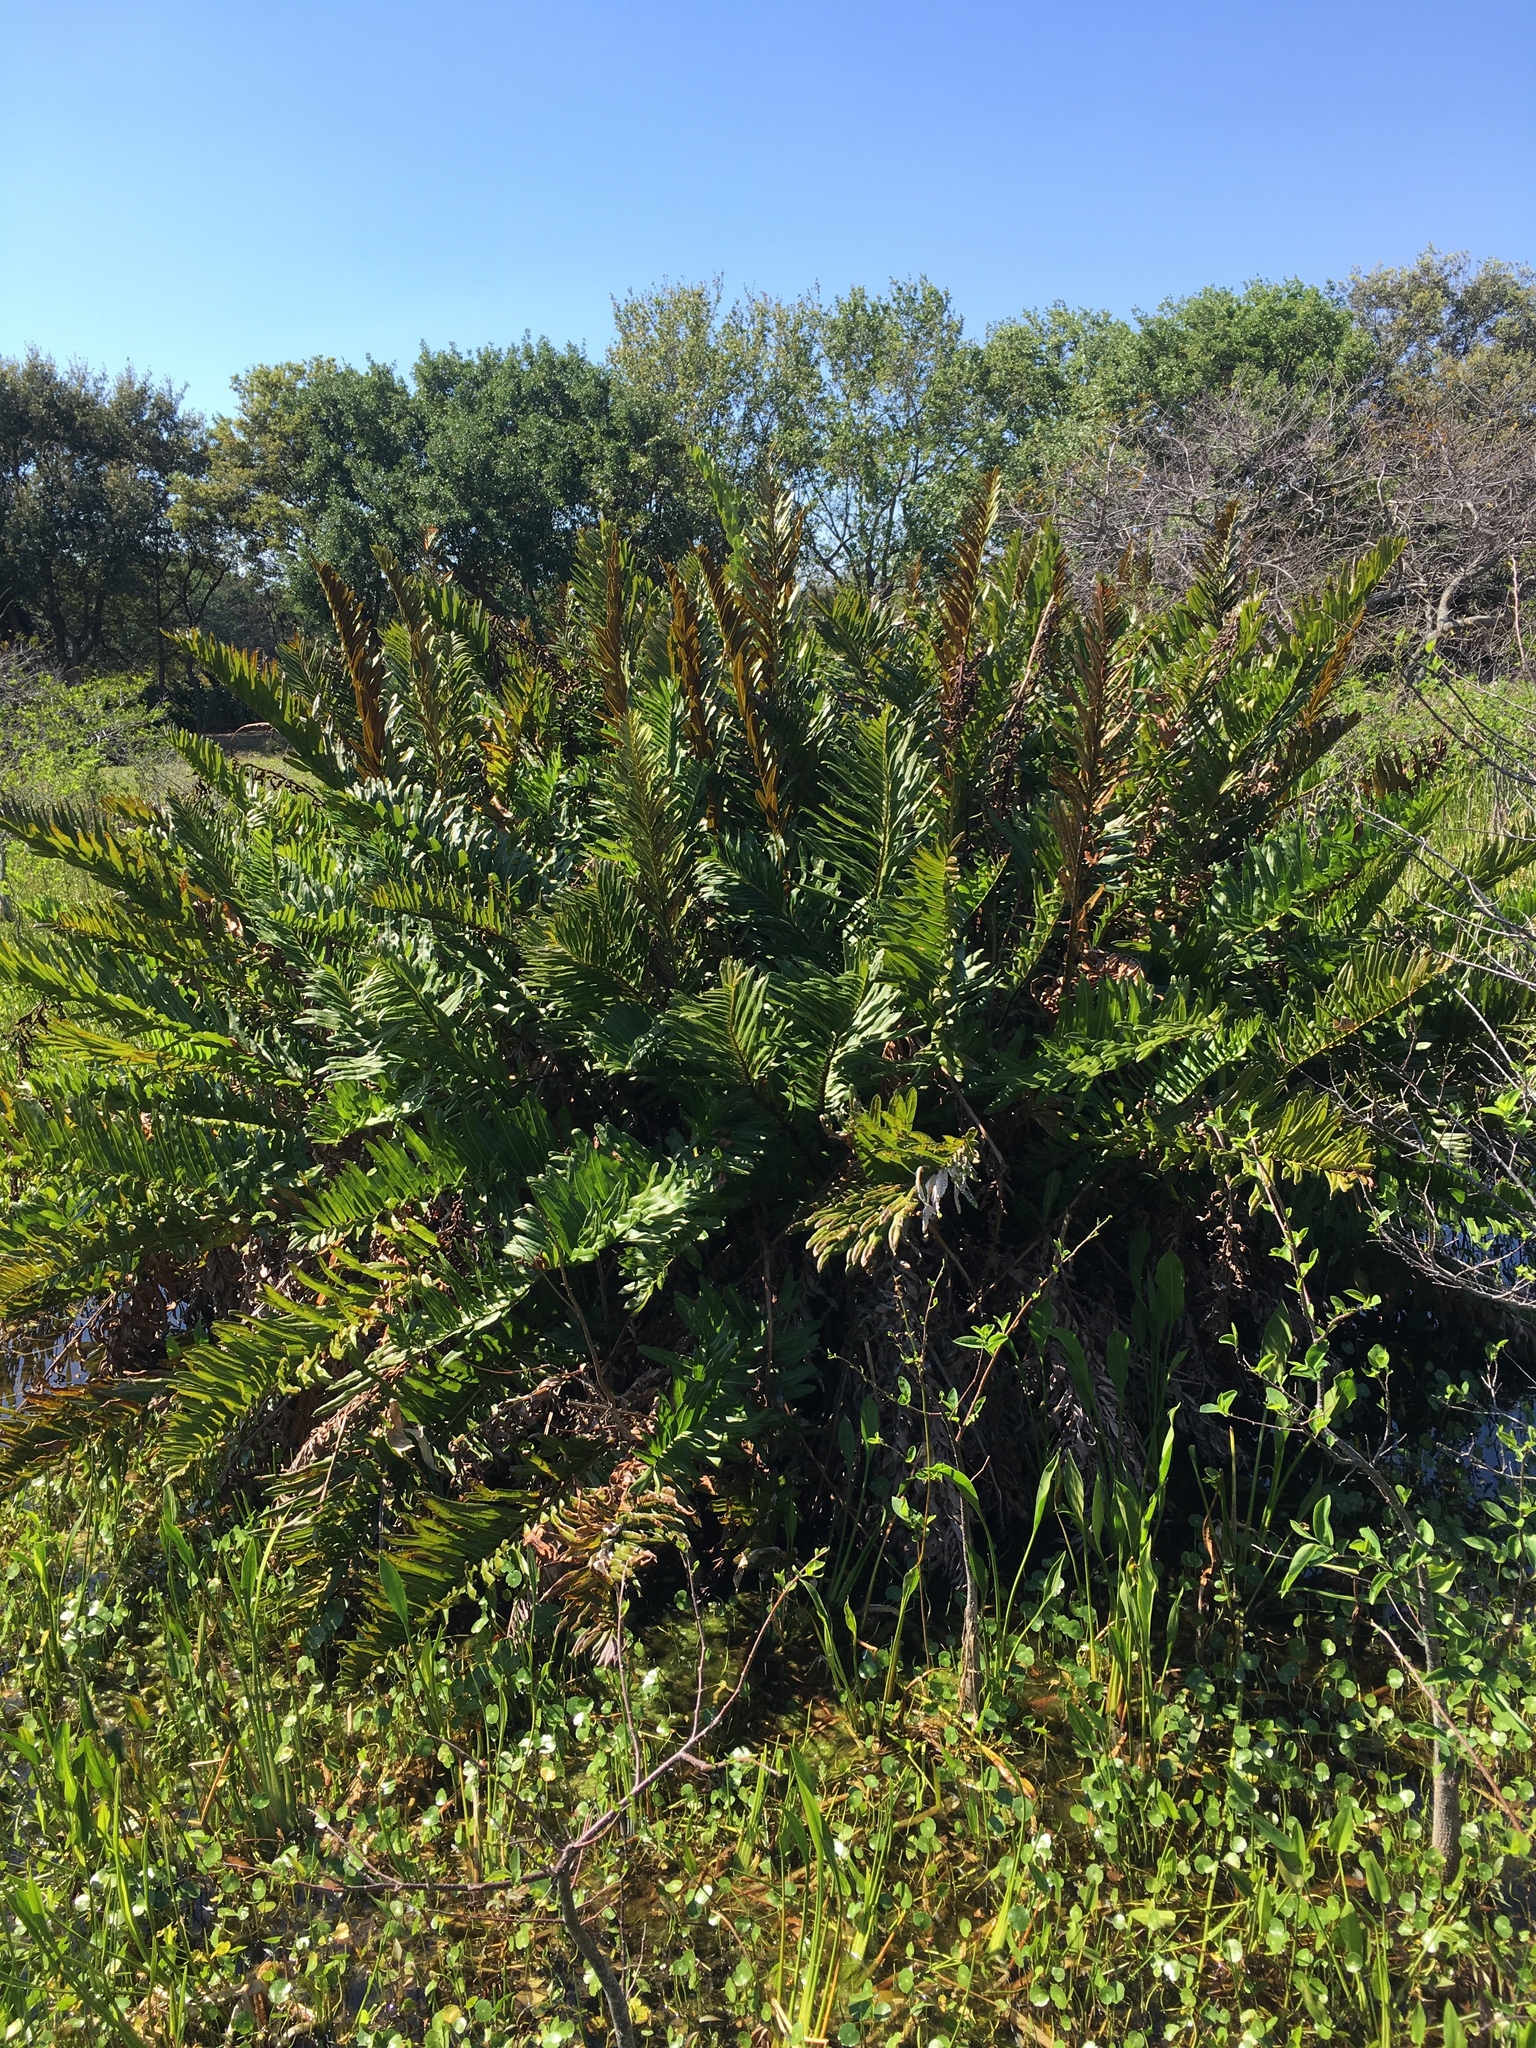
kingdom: Plantae
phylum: Tracheophyta
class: Polypodiopsida
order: Polypodiales
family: Pteridaceae
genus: Acrostichum
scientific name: Acrostichum danaeifolium
